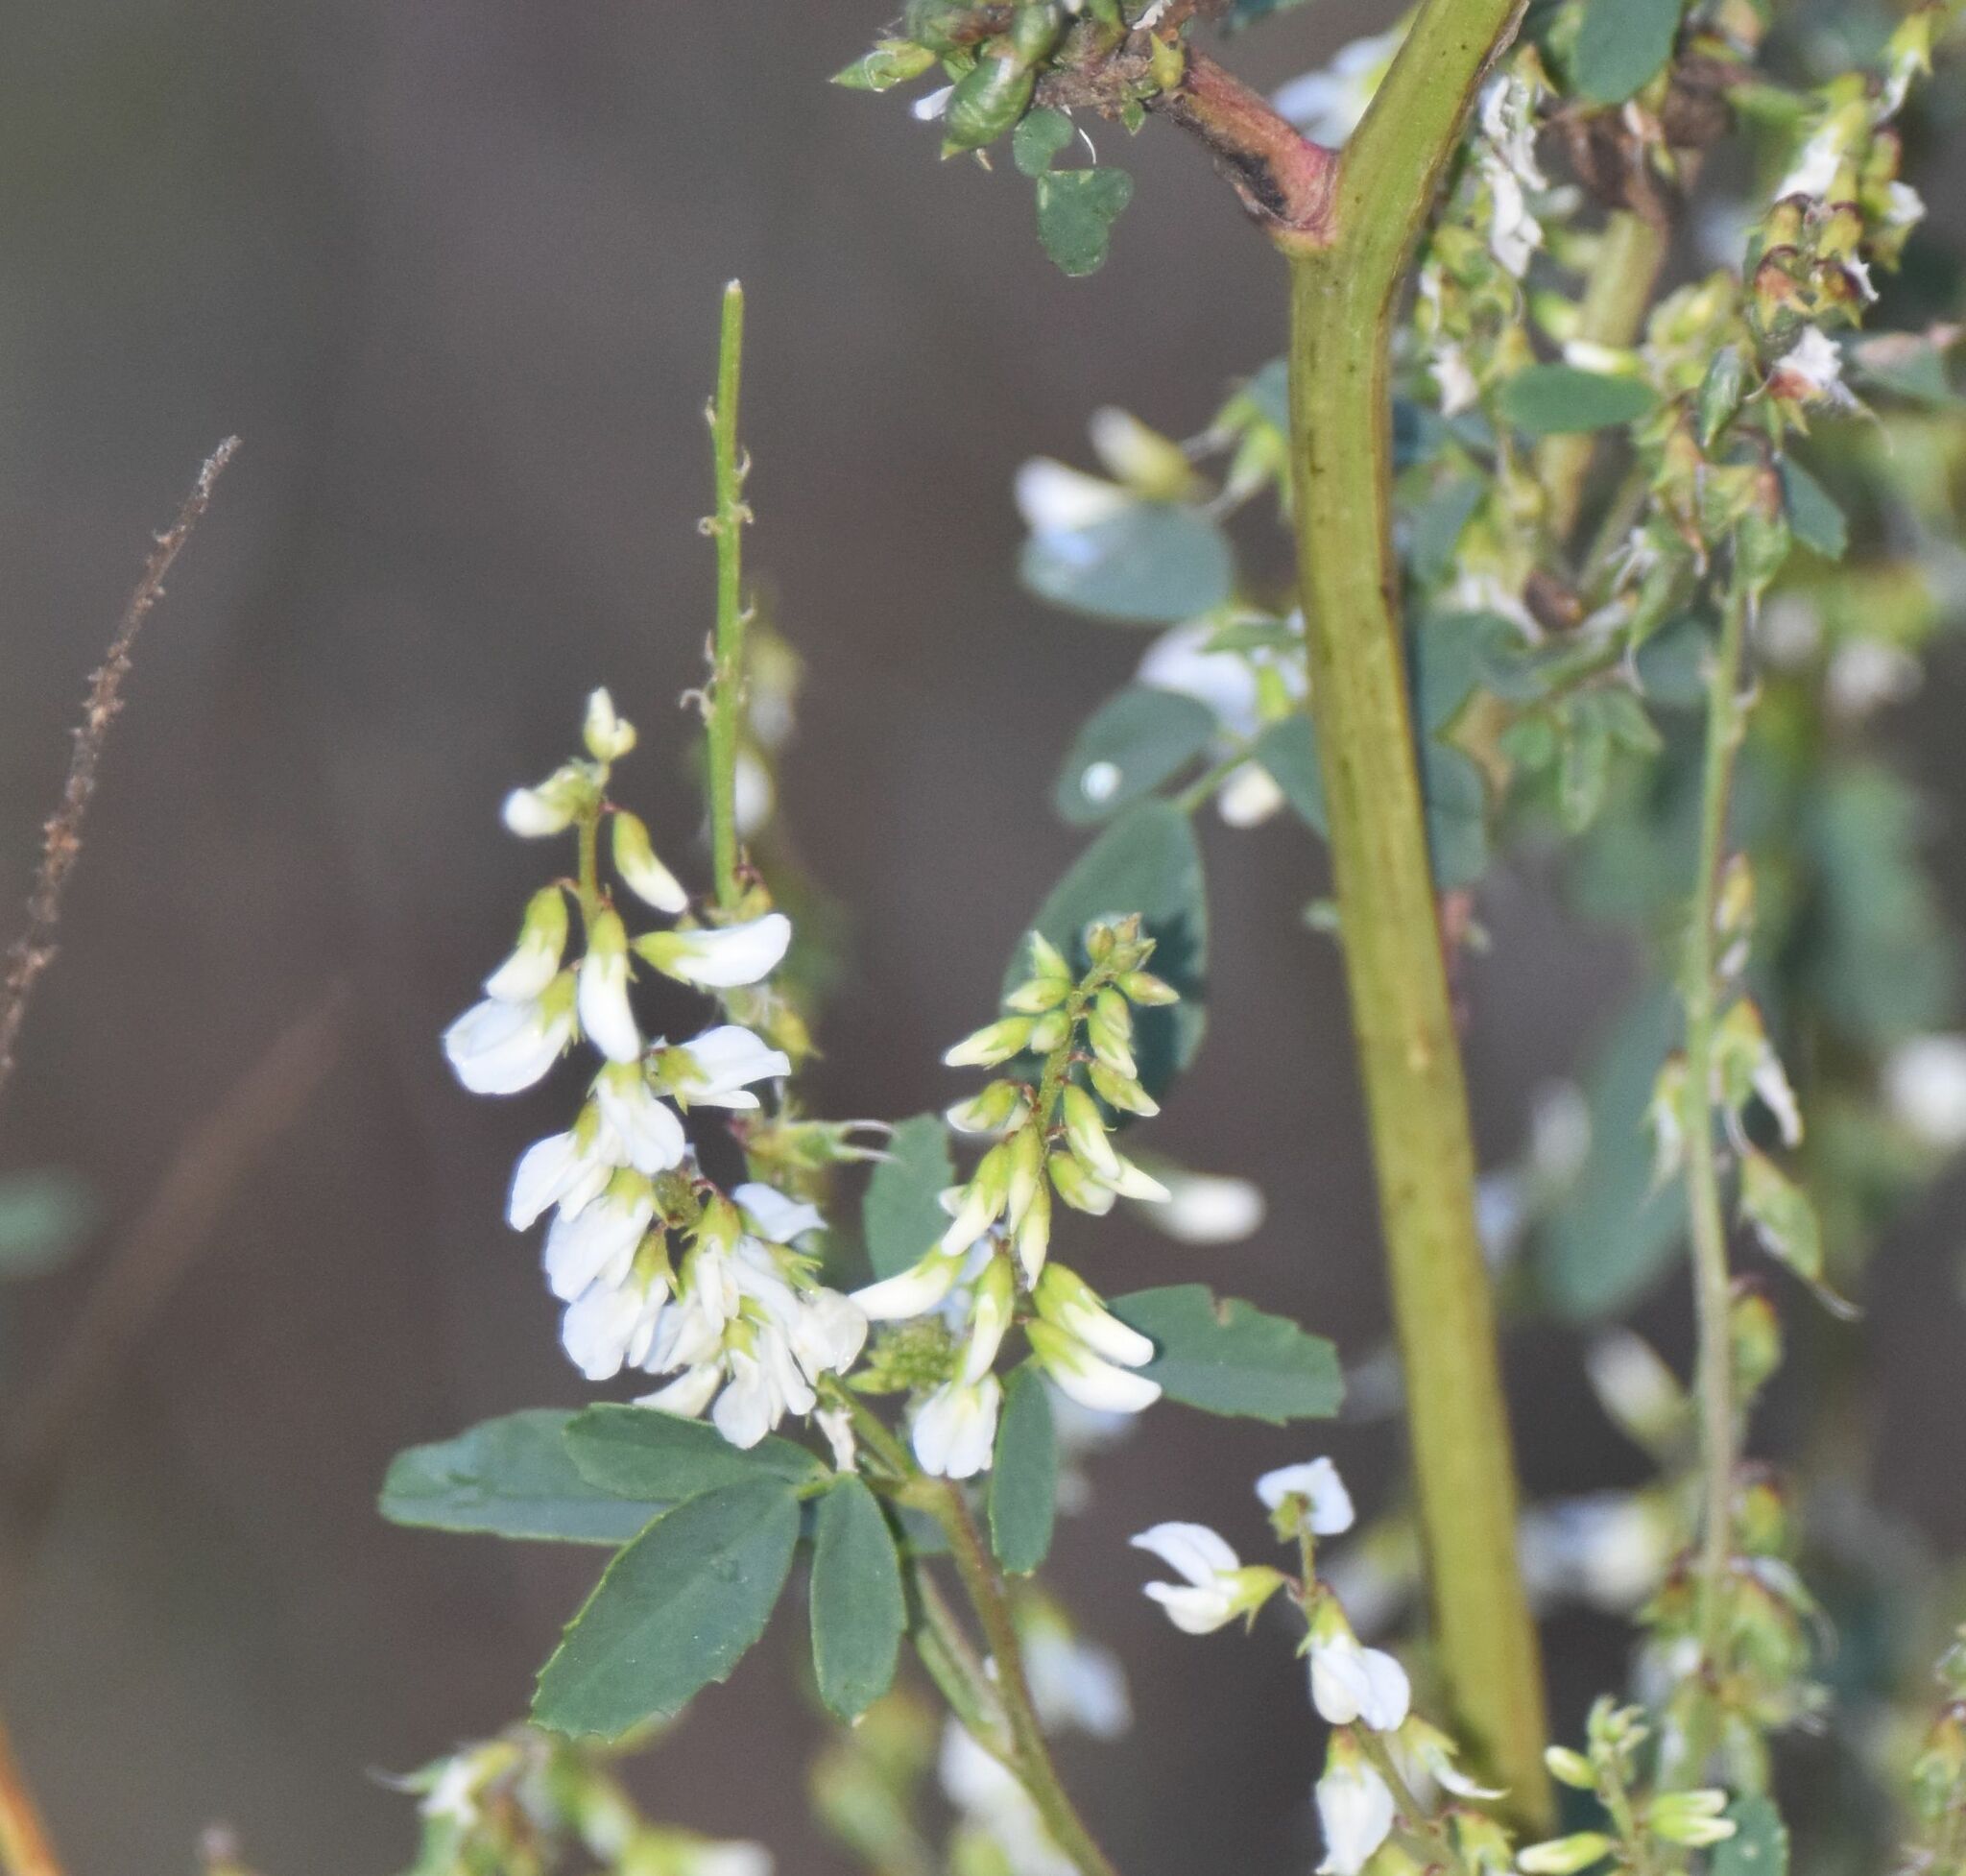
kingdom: Plantae
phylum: Tracheophyta
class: Magnoliopsida
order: Fabales
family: Fabaceae
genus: Melilotus
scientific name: Melilotus albus
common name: White melilot
